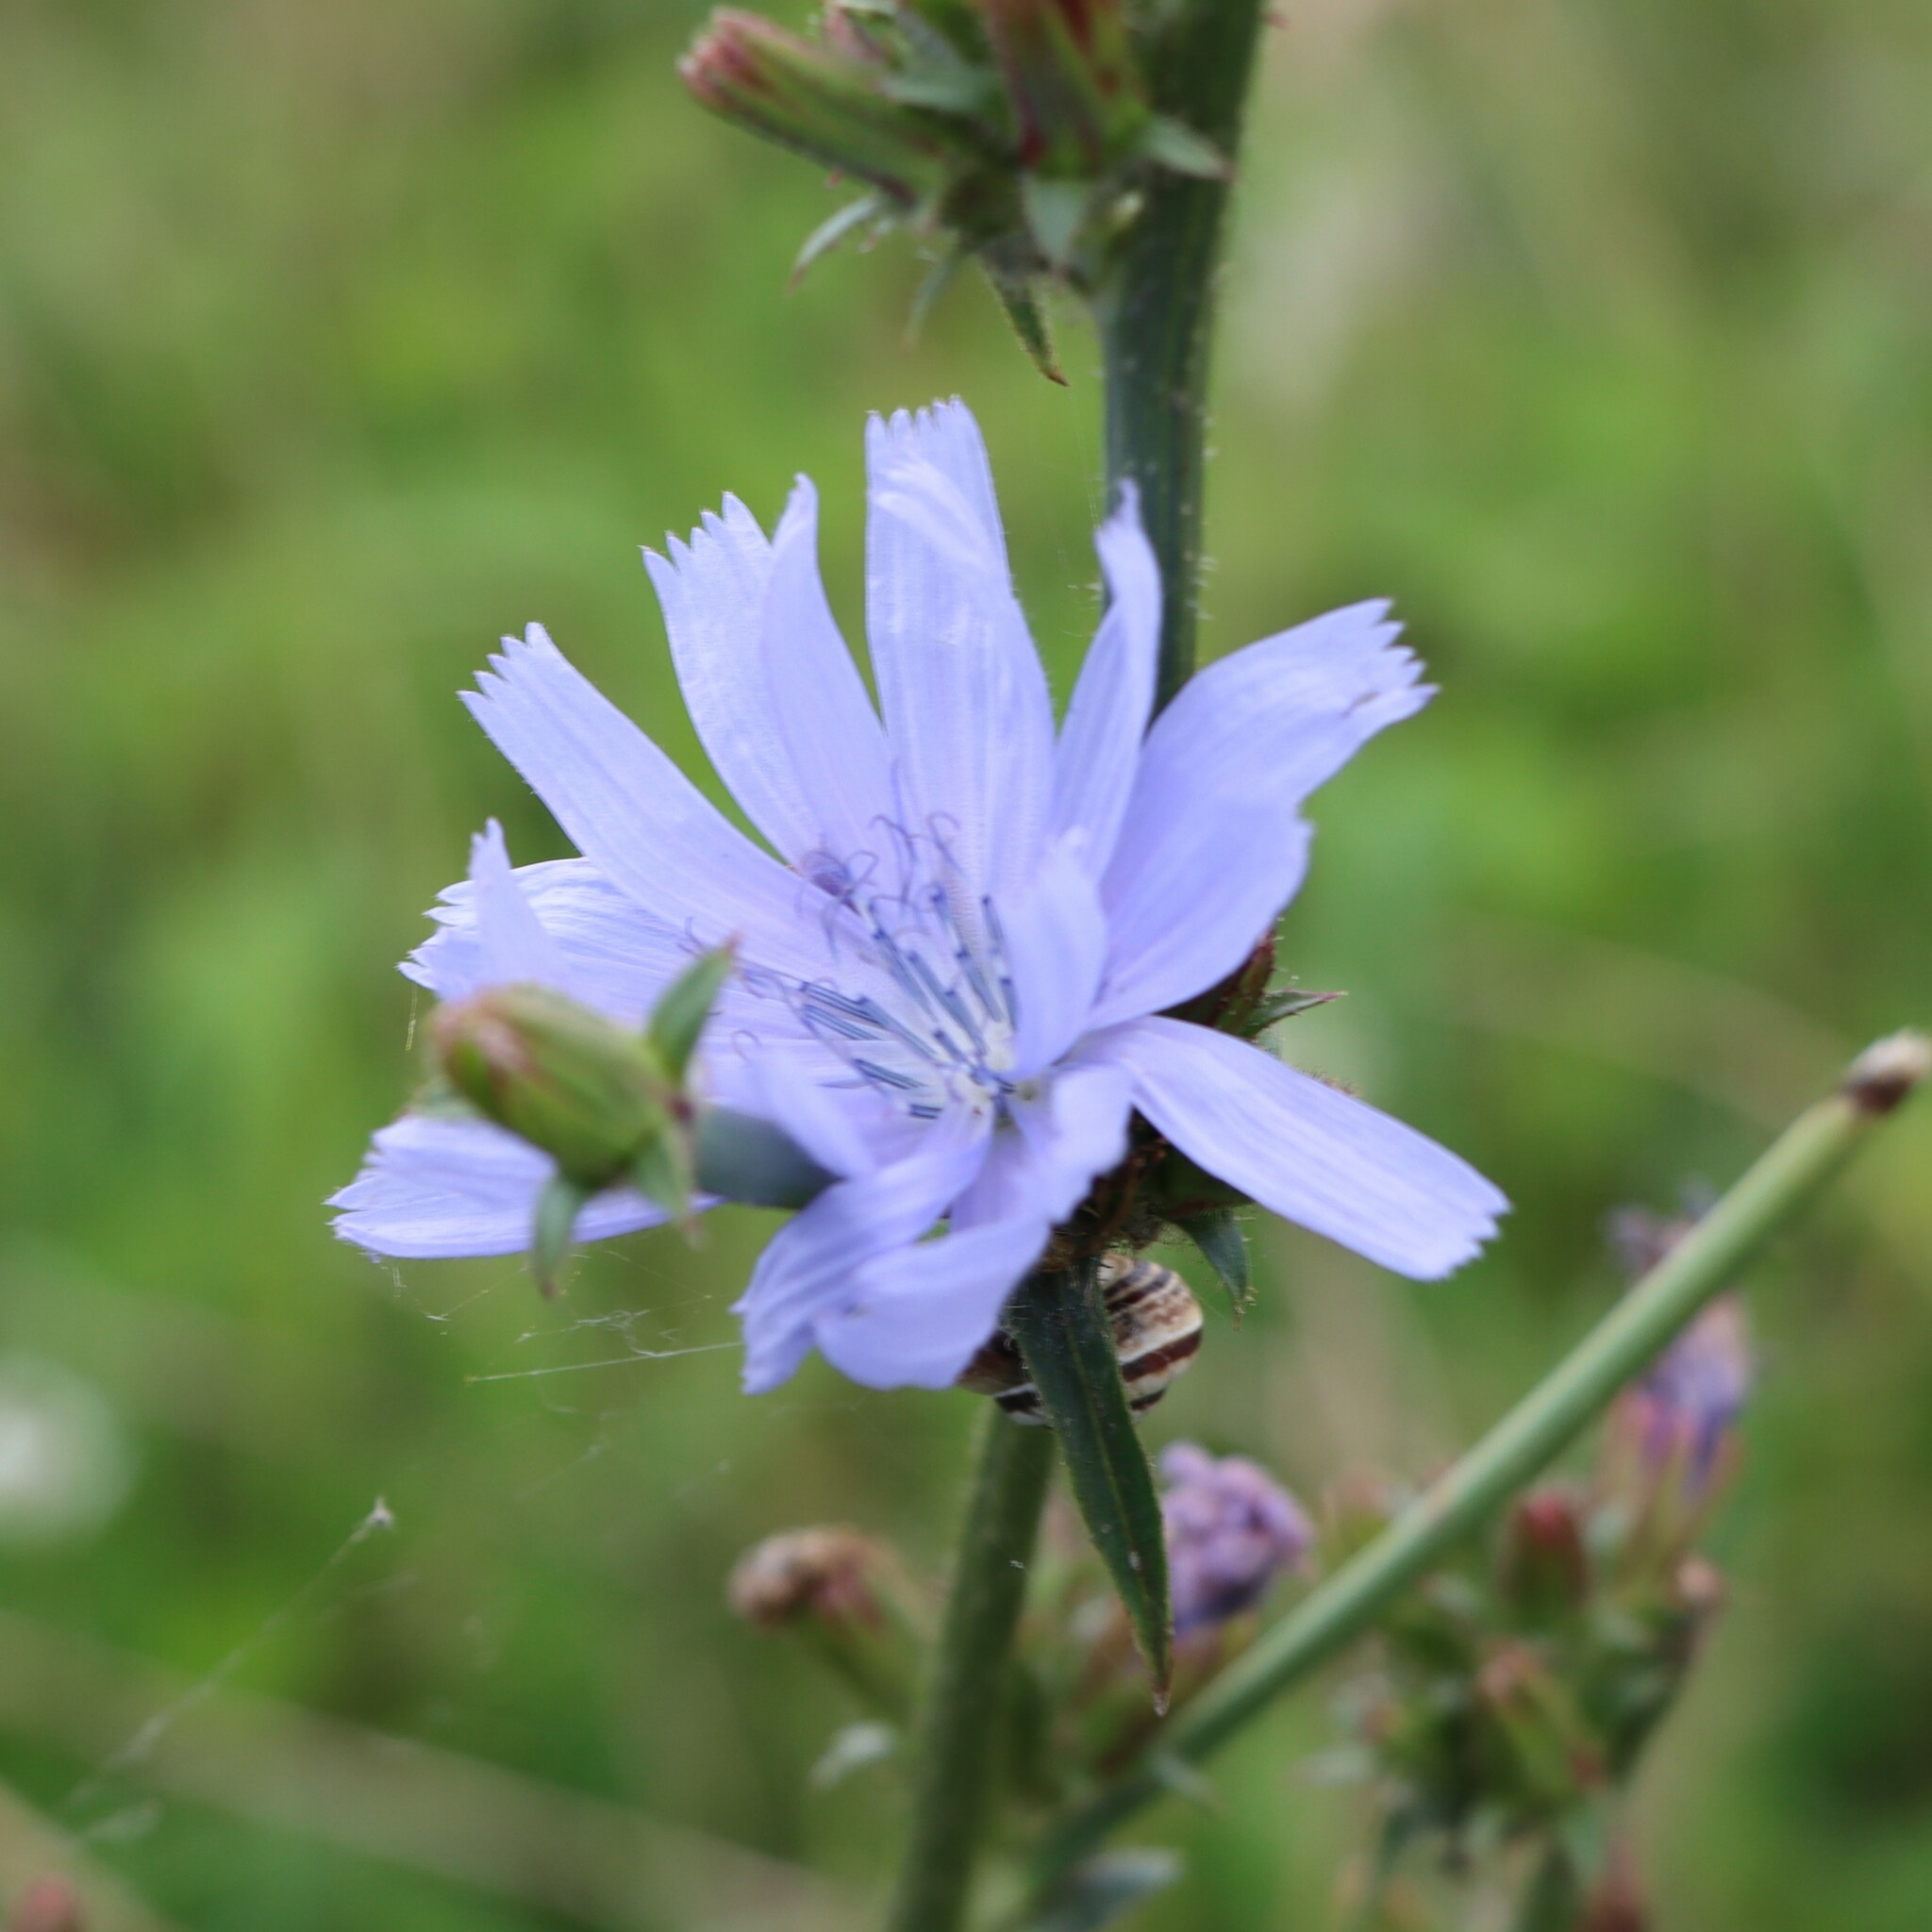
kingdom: Plantae
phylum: Tracheophyta
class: Magnoliopsida
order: Asterales
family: Asteraceae
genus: Cichorium
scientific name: Cichorium intybus
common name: Chicory
